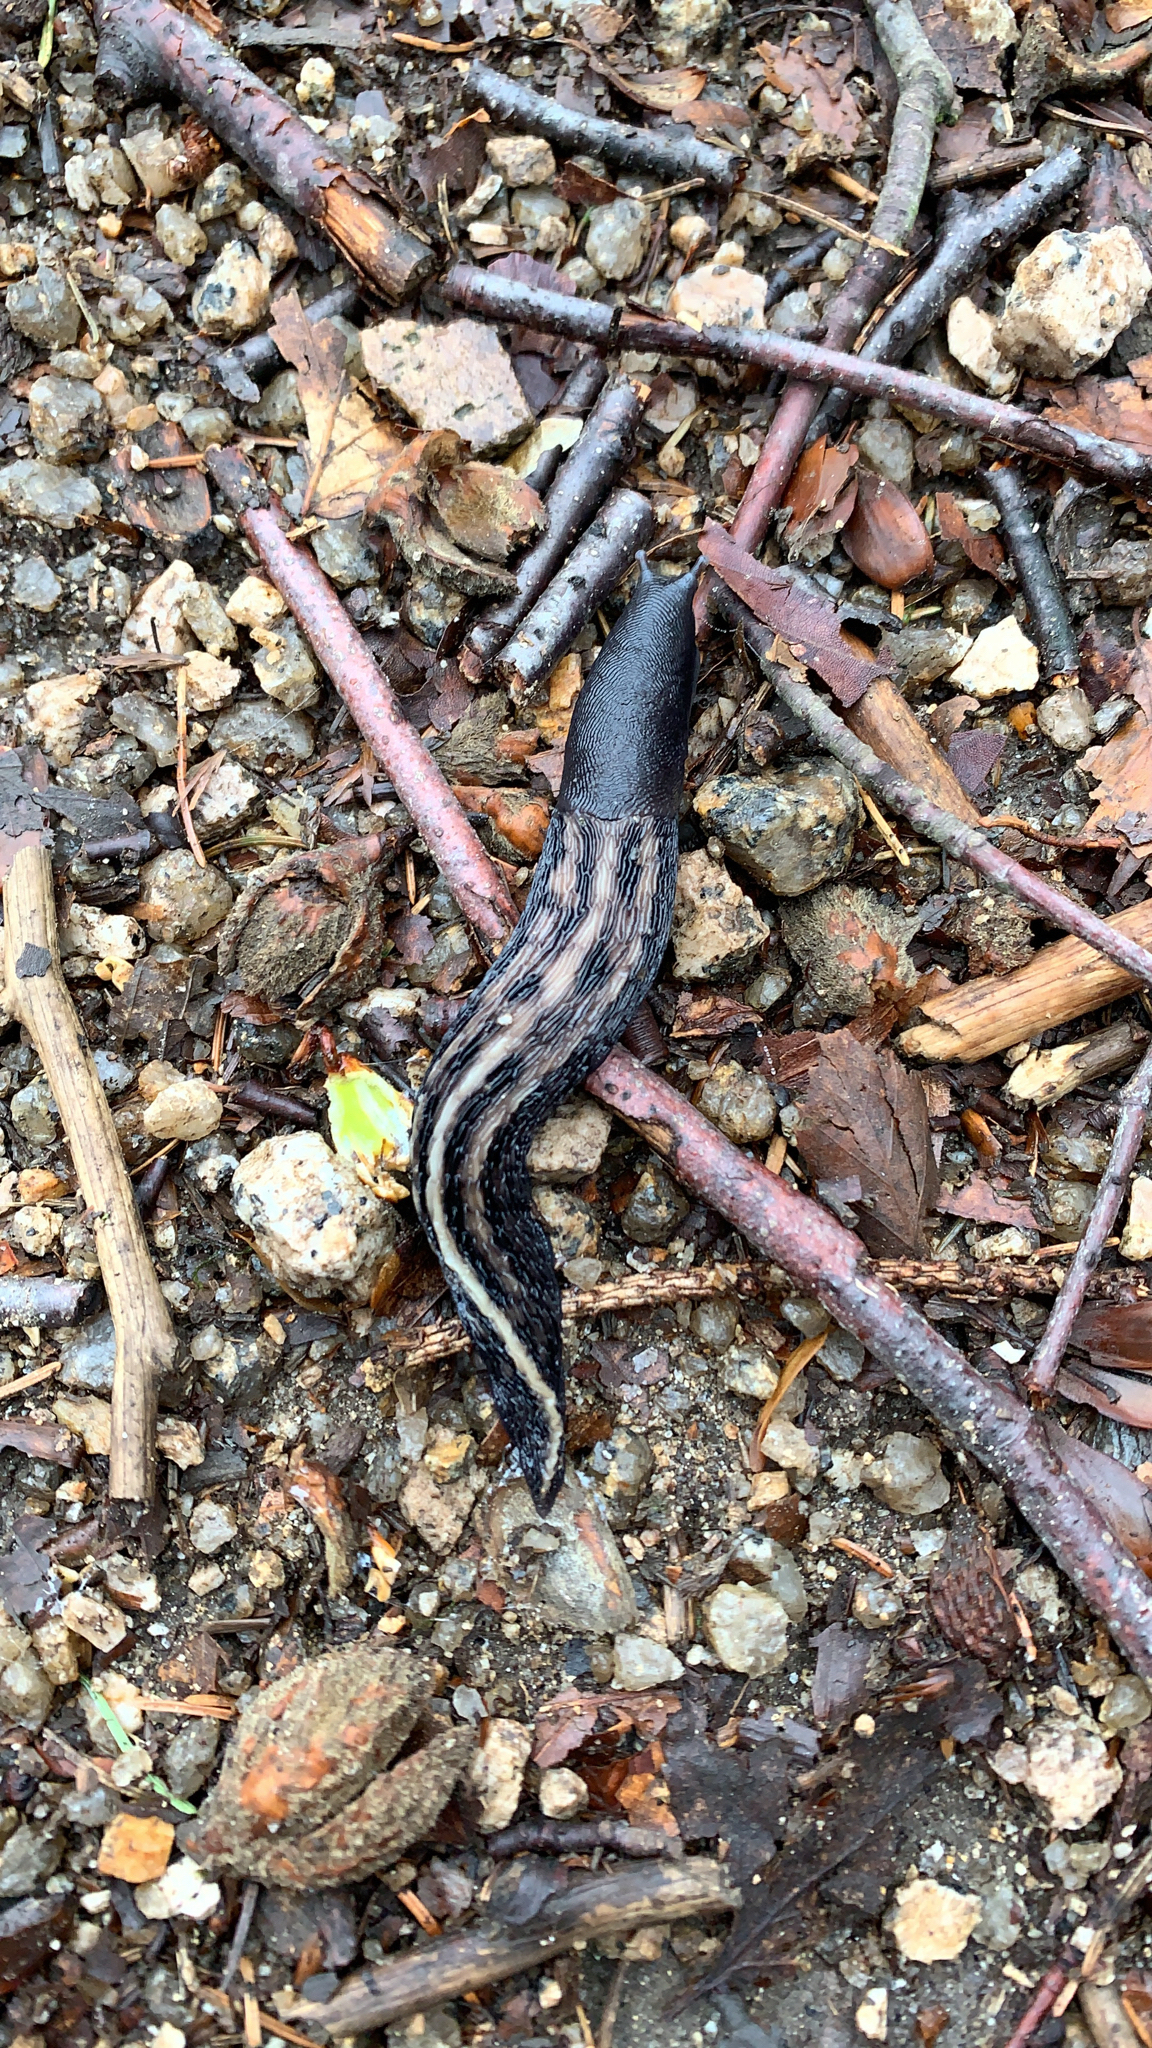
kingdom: Animalia
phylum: Mollusca
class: Gastropoda
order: Stylommatophora
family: Limacidae
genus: Limax
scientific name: Limax cinereoniger
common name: Ash-black slug
